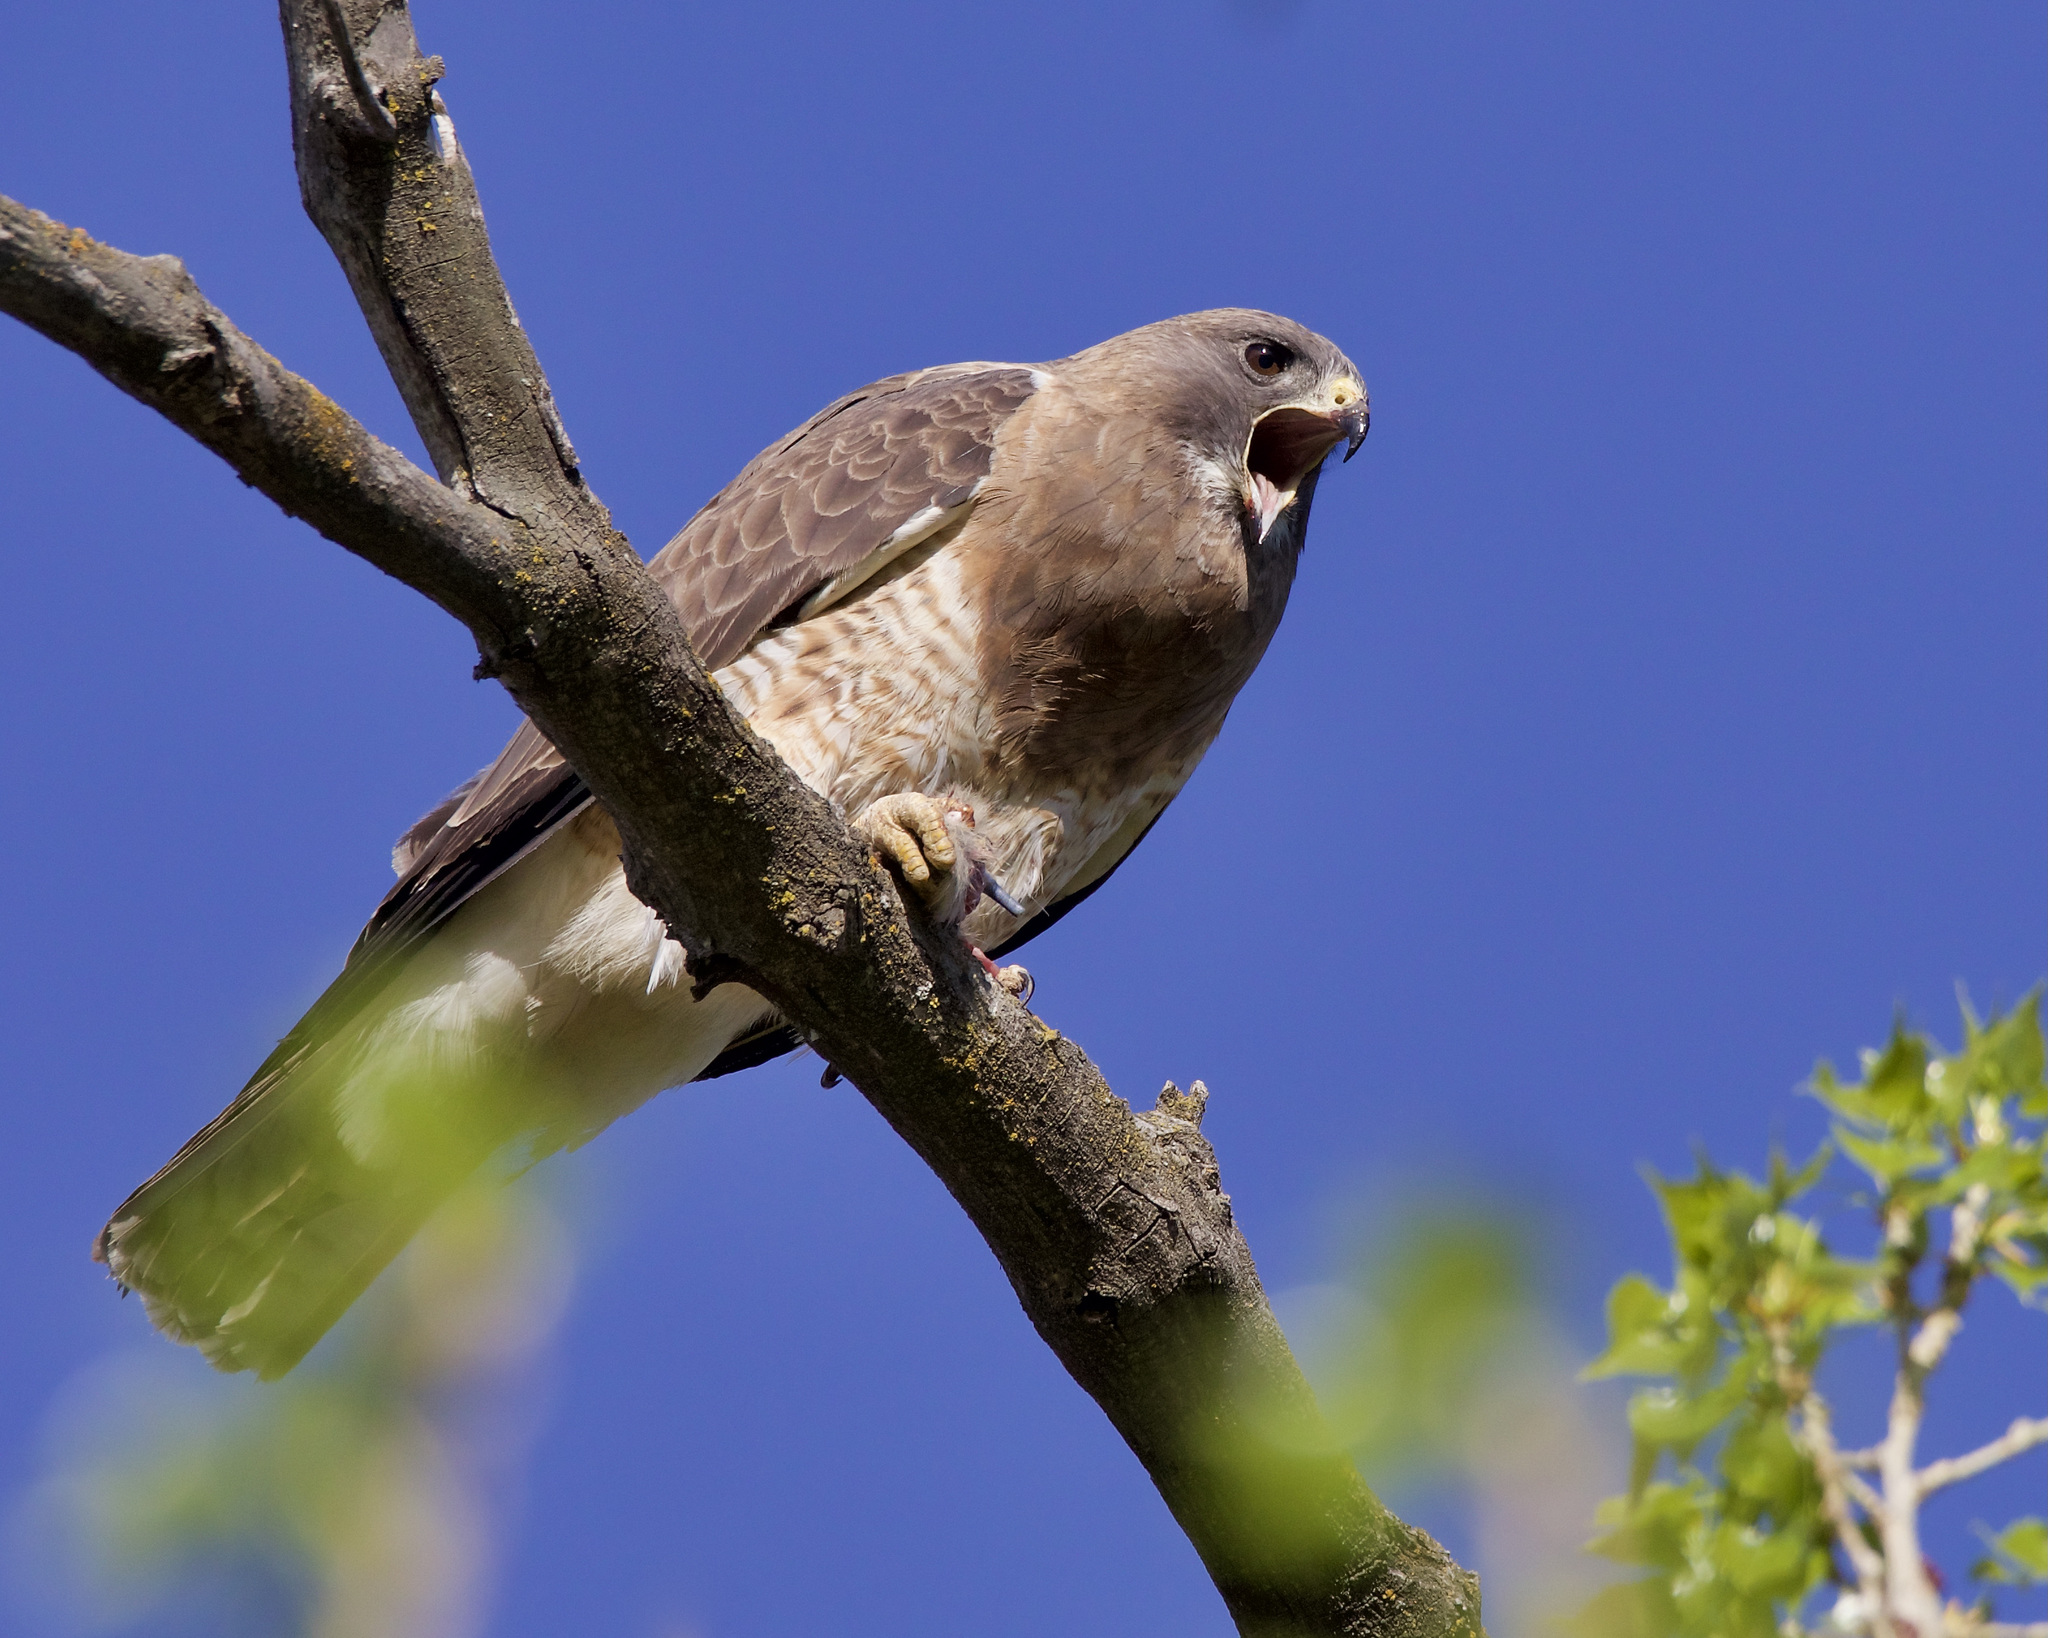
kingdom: Animalia
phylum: Chordata
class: Aves
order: Accipitriformes
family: Accipitridae
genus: Buteo
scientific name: Buteo swainsoni
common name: Swainson's hawk
